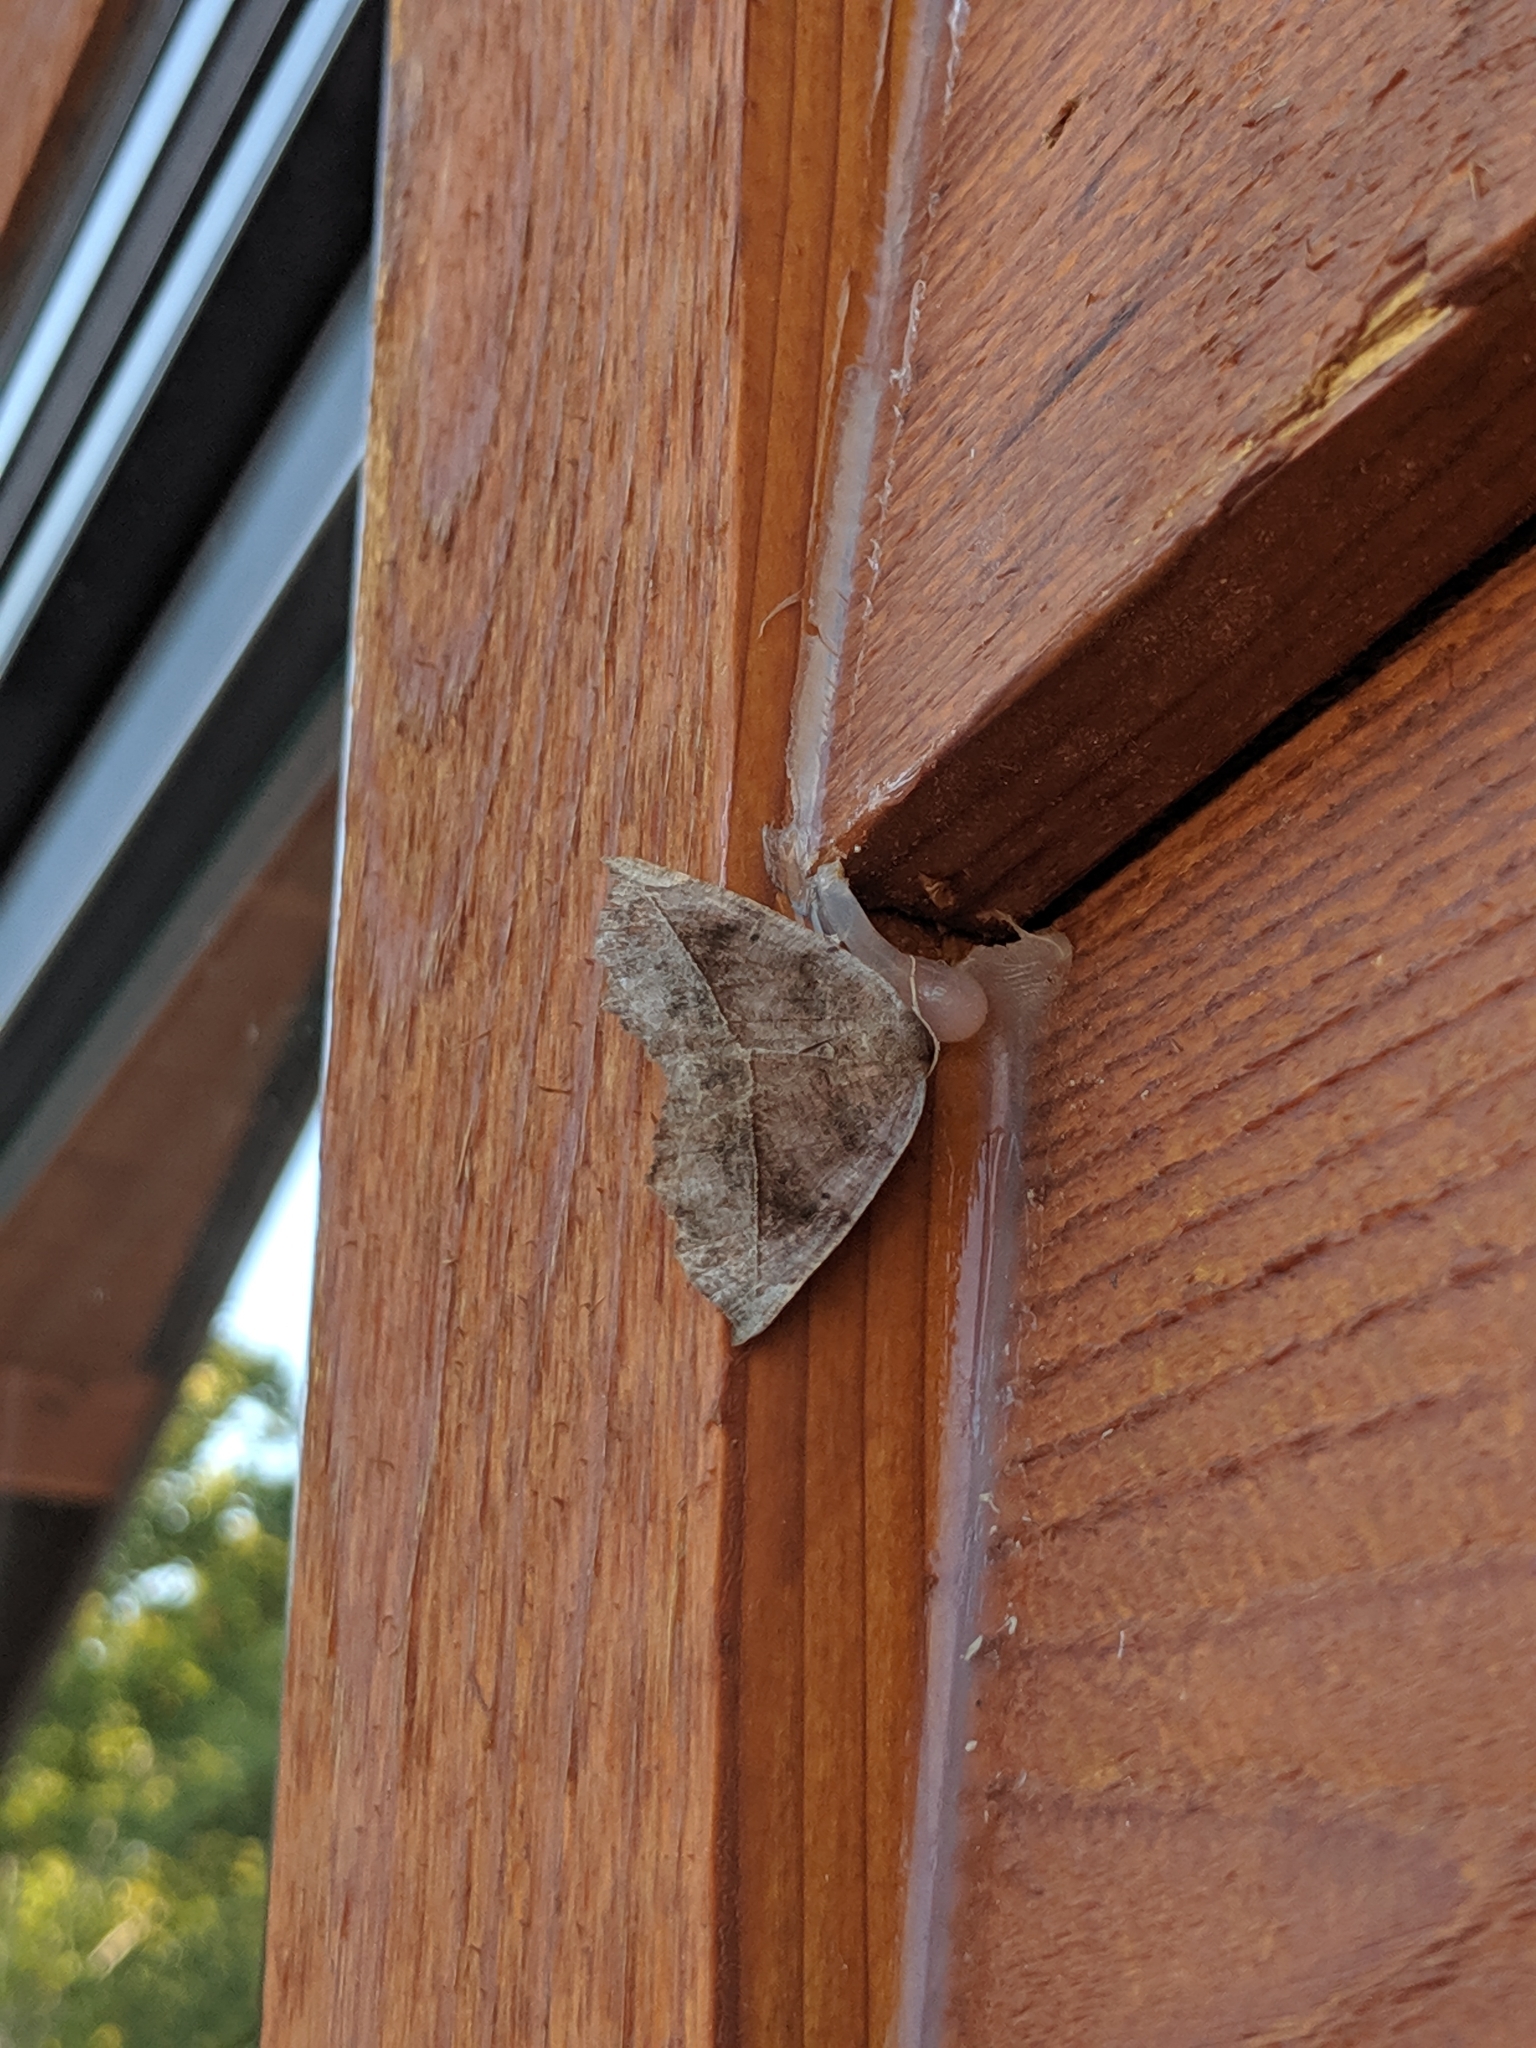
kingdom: Animalia
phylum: Arthropoda
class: Insecta
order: Lepidoptera
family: Geometridae
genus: Eutrapela
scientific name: Eutrapela clemataria
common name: Curved-toothed geometer
